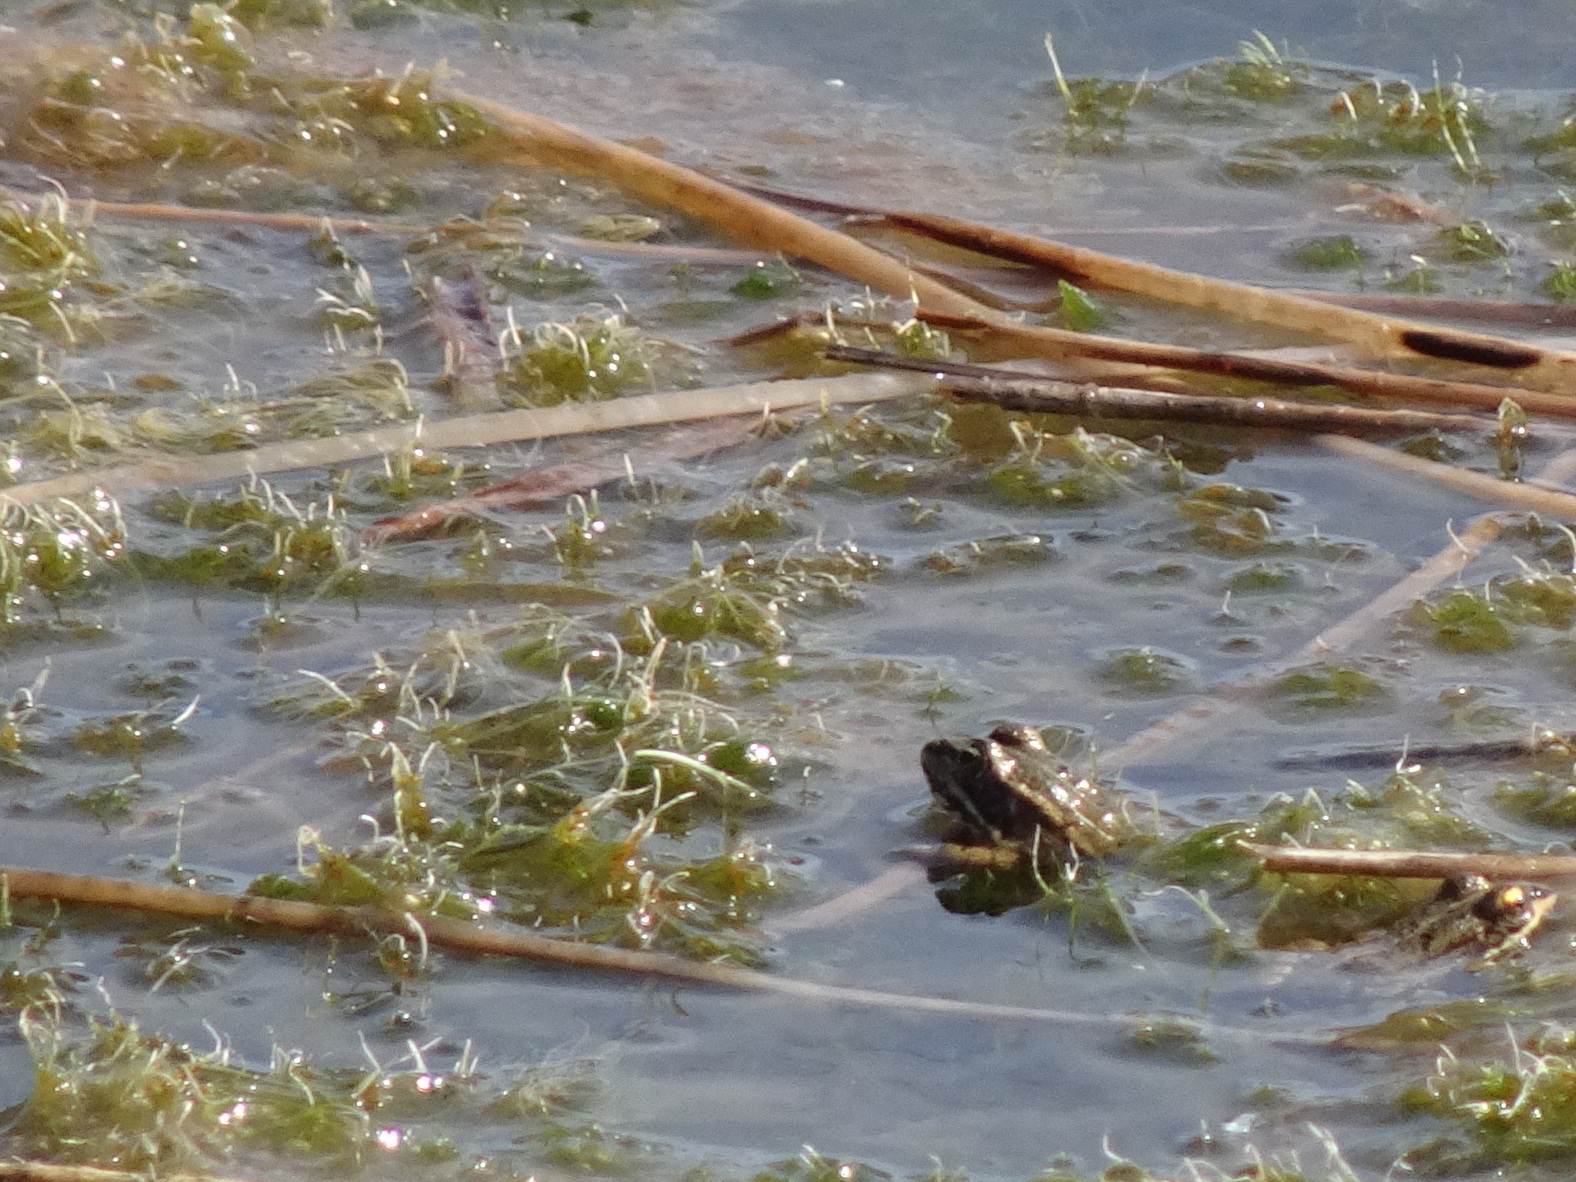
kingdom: Animalia
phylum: Chordata
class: Amphibia
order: Anura
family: Ranidae
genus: Pelophylax
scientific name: Pelophylax
